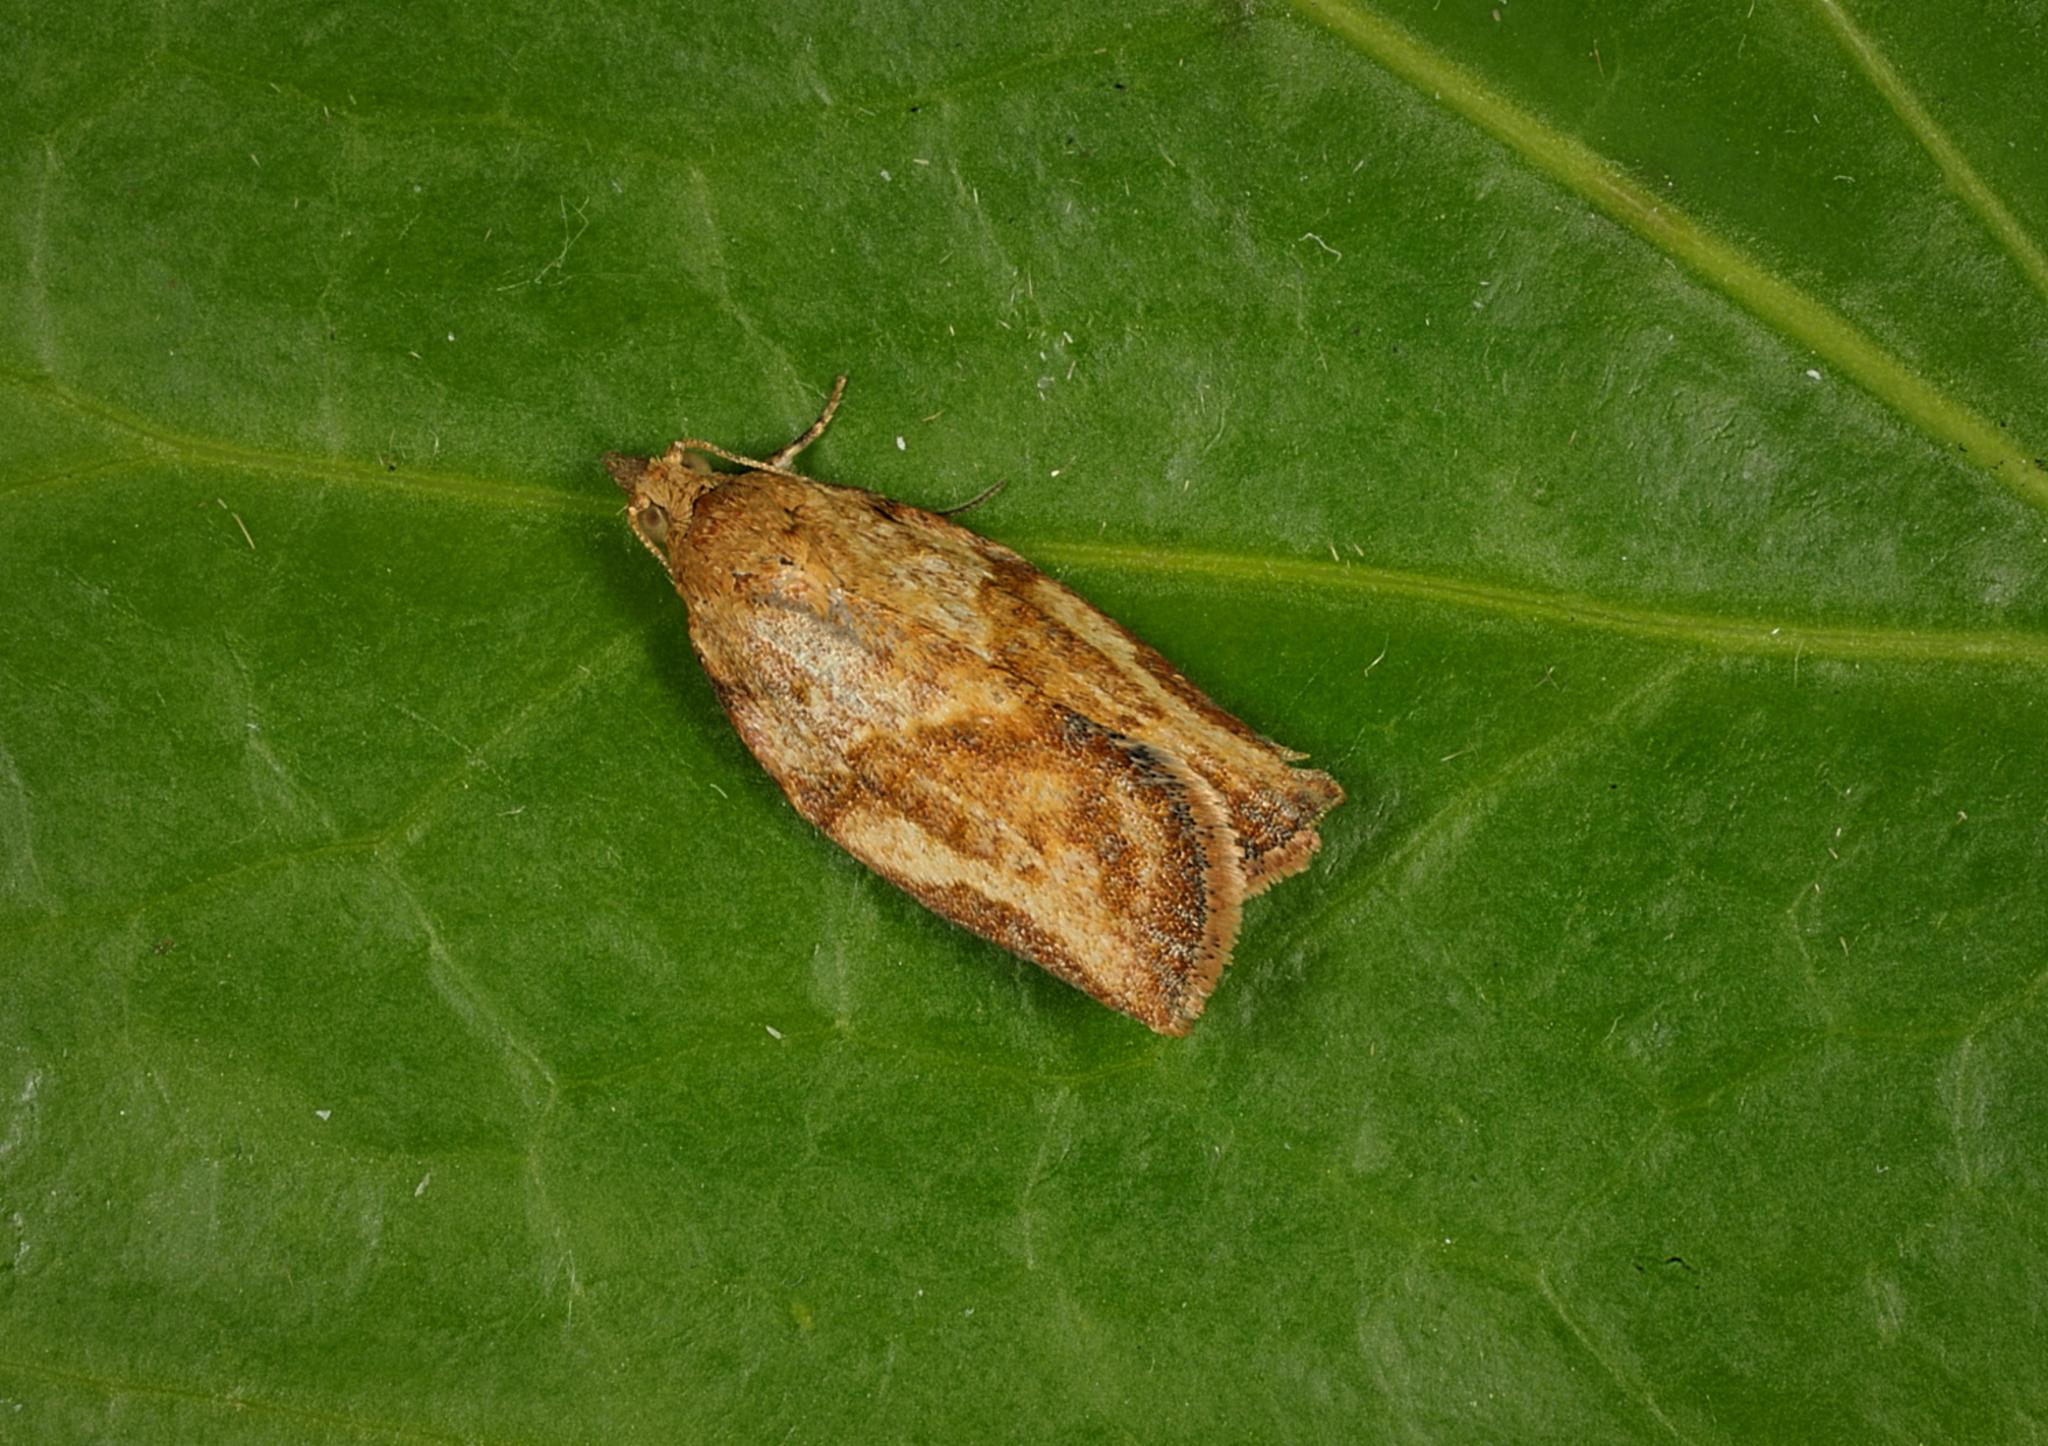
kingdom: Animalia
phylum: Arthropoda
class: Insecta
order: Lepidoptera
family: Tortricidae
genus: Epiphyas
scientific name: Epiphyas postvittana
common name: Light brown apple moth
